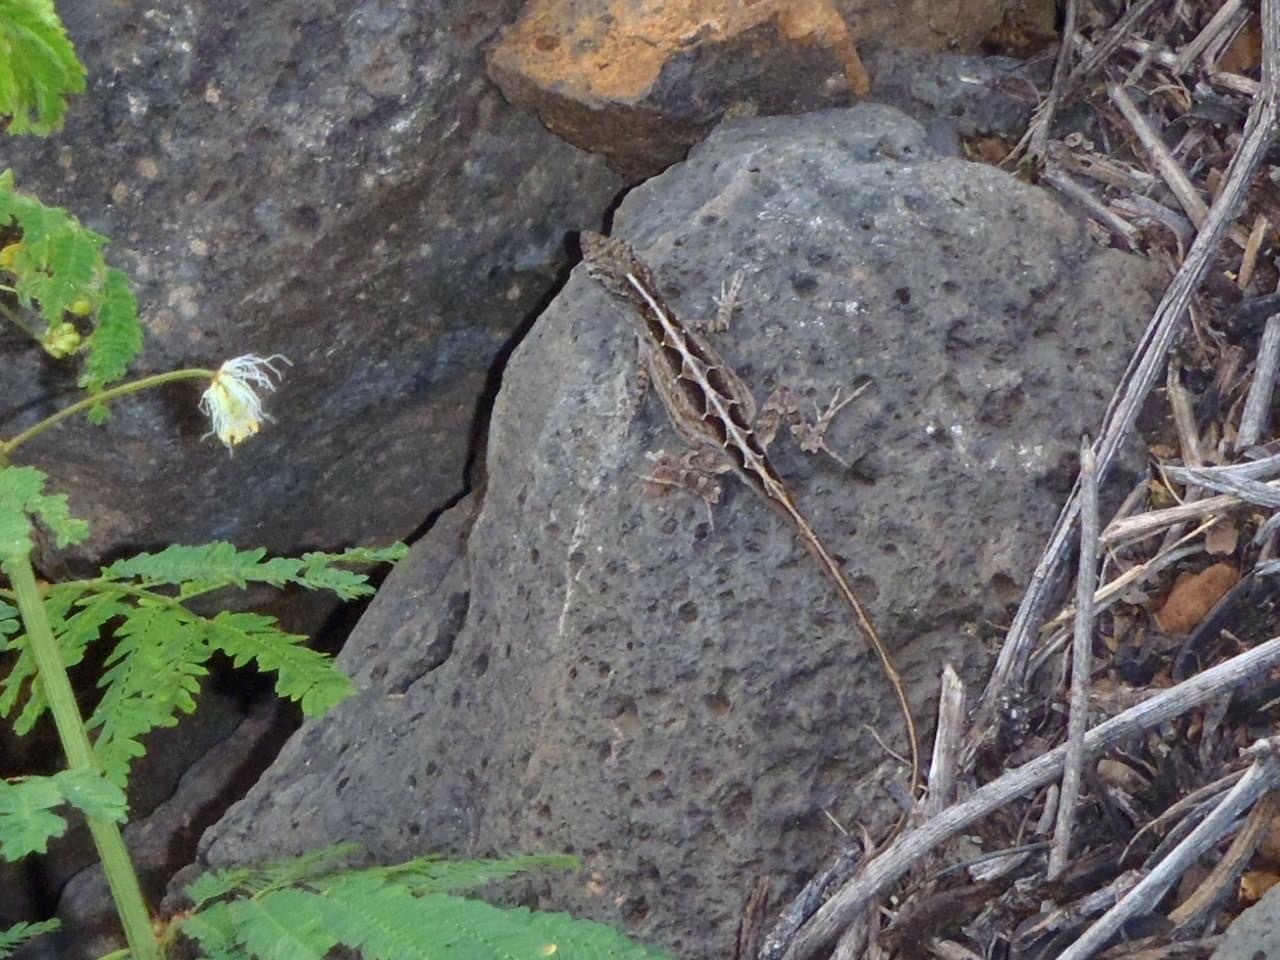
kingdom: Animalia
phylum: Chordata
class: Squamata
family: Dactyloidae
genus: Anolis
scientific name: Anolis sagrei
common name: Brown anole
